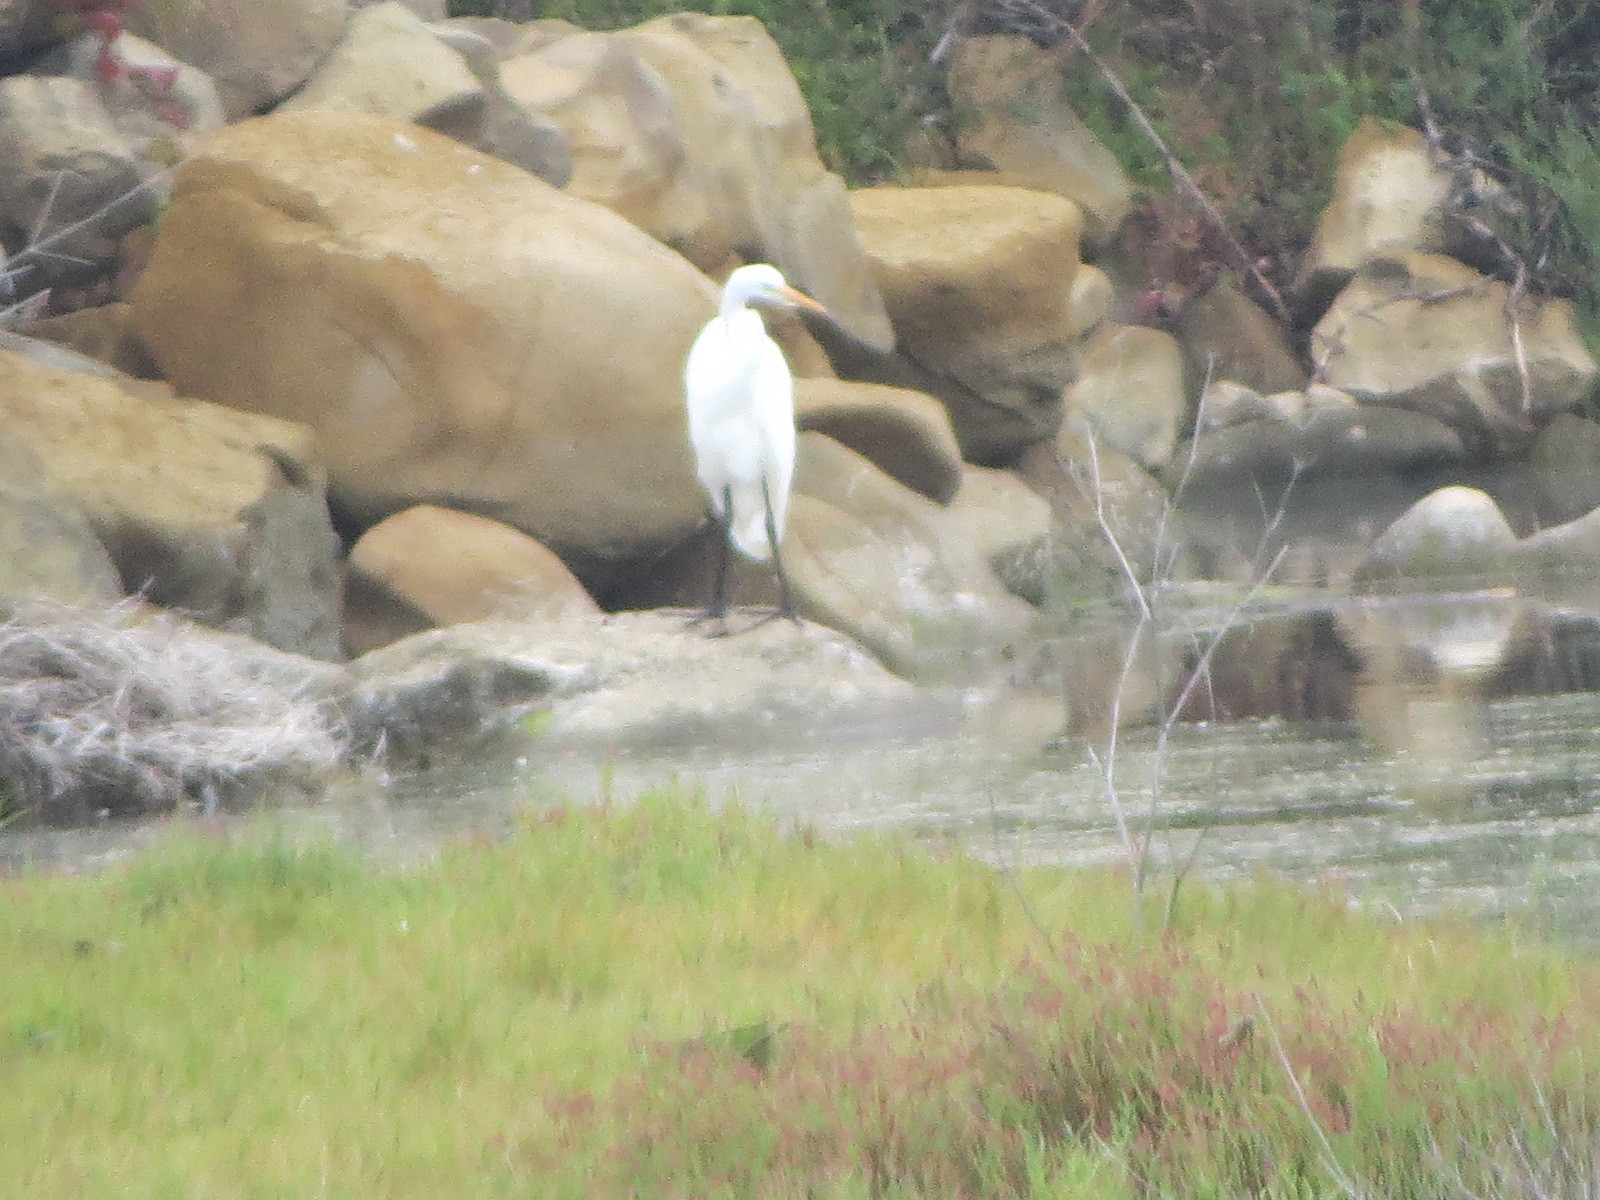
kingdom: Animalia
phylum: Chordata
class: Aves
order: Pelecaniformes
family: Ardeidae
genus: Ardea
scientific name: Ardea alba
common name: Great egret
